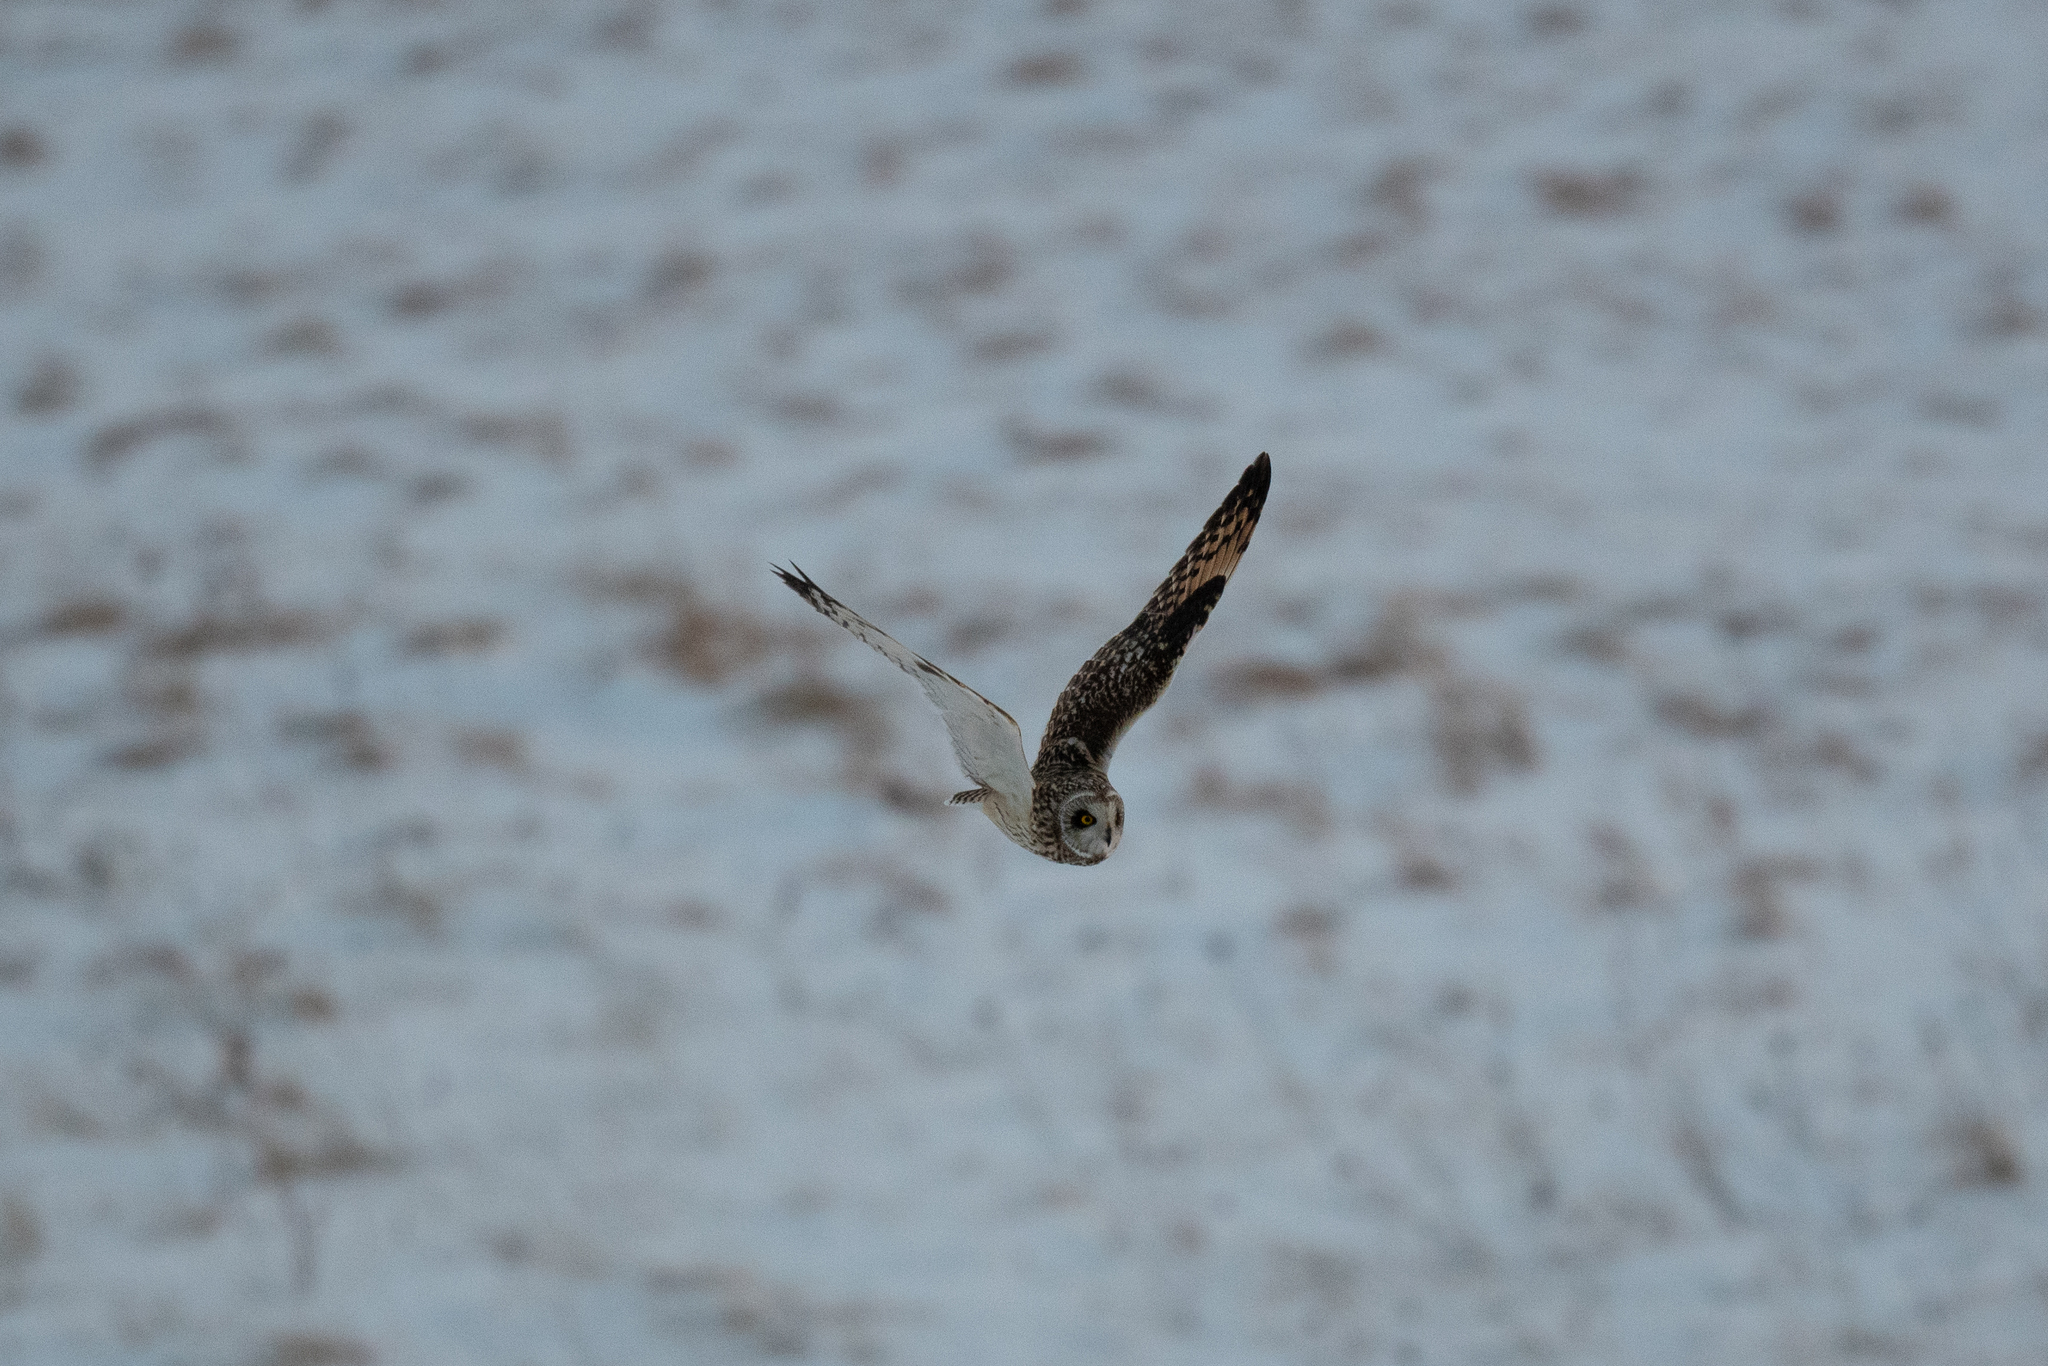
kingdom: Animalia
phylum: Chordata
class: Aves
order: Strigiformes
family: Strigidae
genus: Asio
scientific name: Asio flammeus
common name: Short-eared owl
